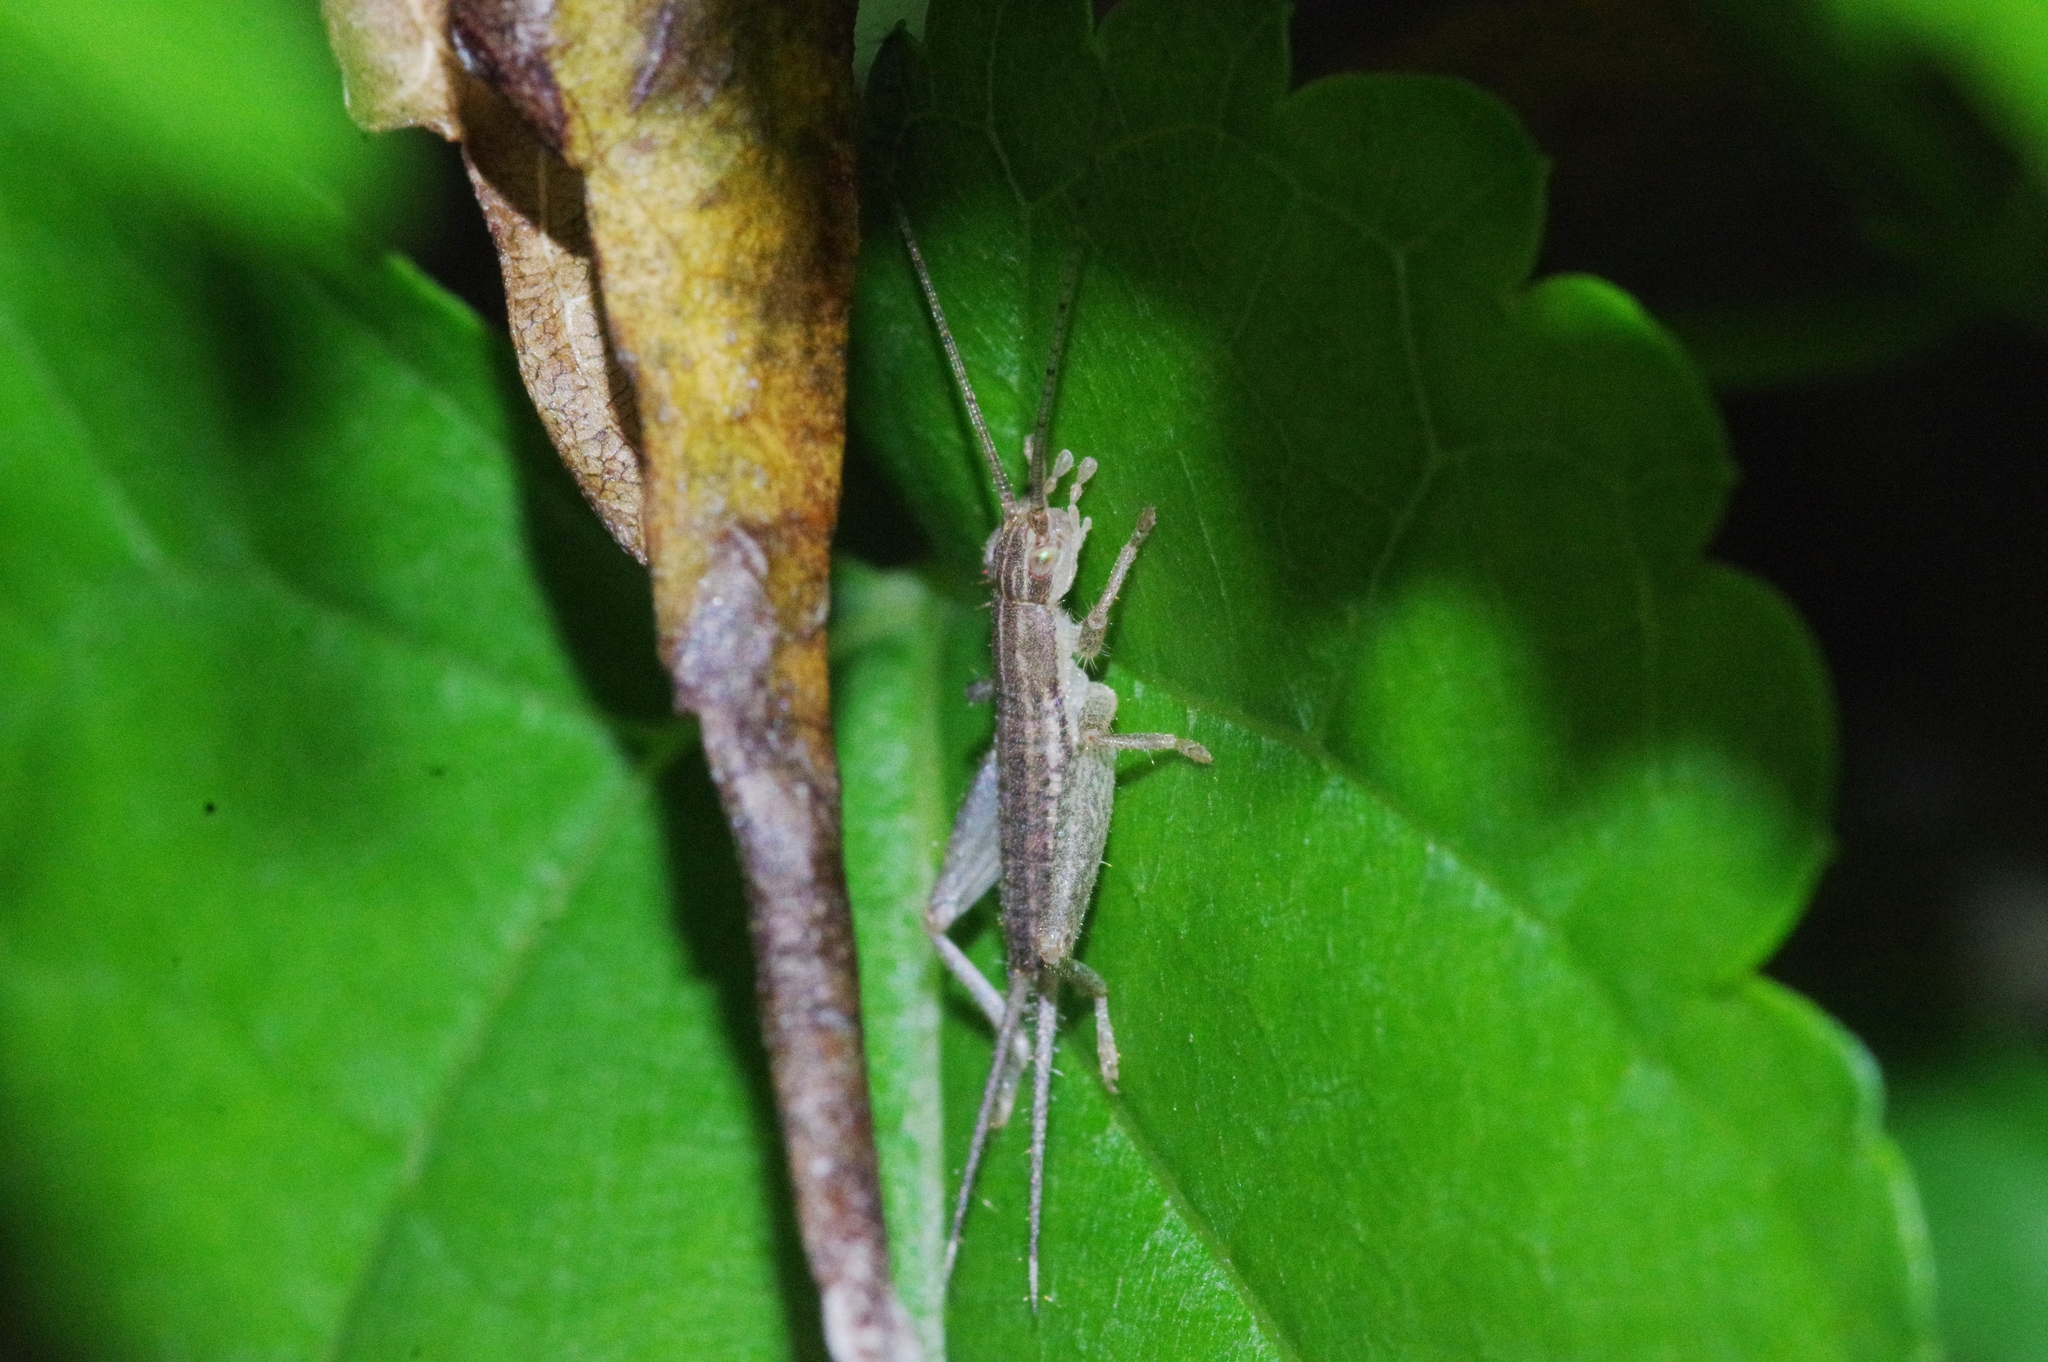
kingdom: Animalia
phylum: Arthropoda
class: Insecta
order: Orthoptera
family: Mogoplistidae
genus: Ornebius
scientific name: Ornebius bimaculatus
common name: Cricket
